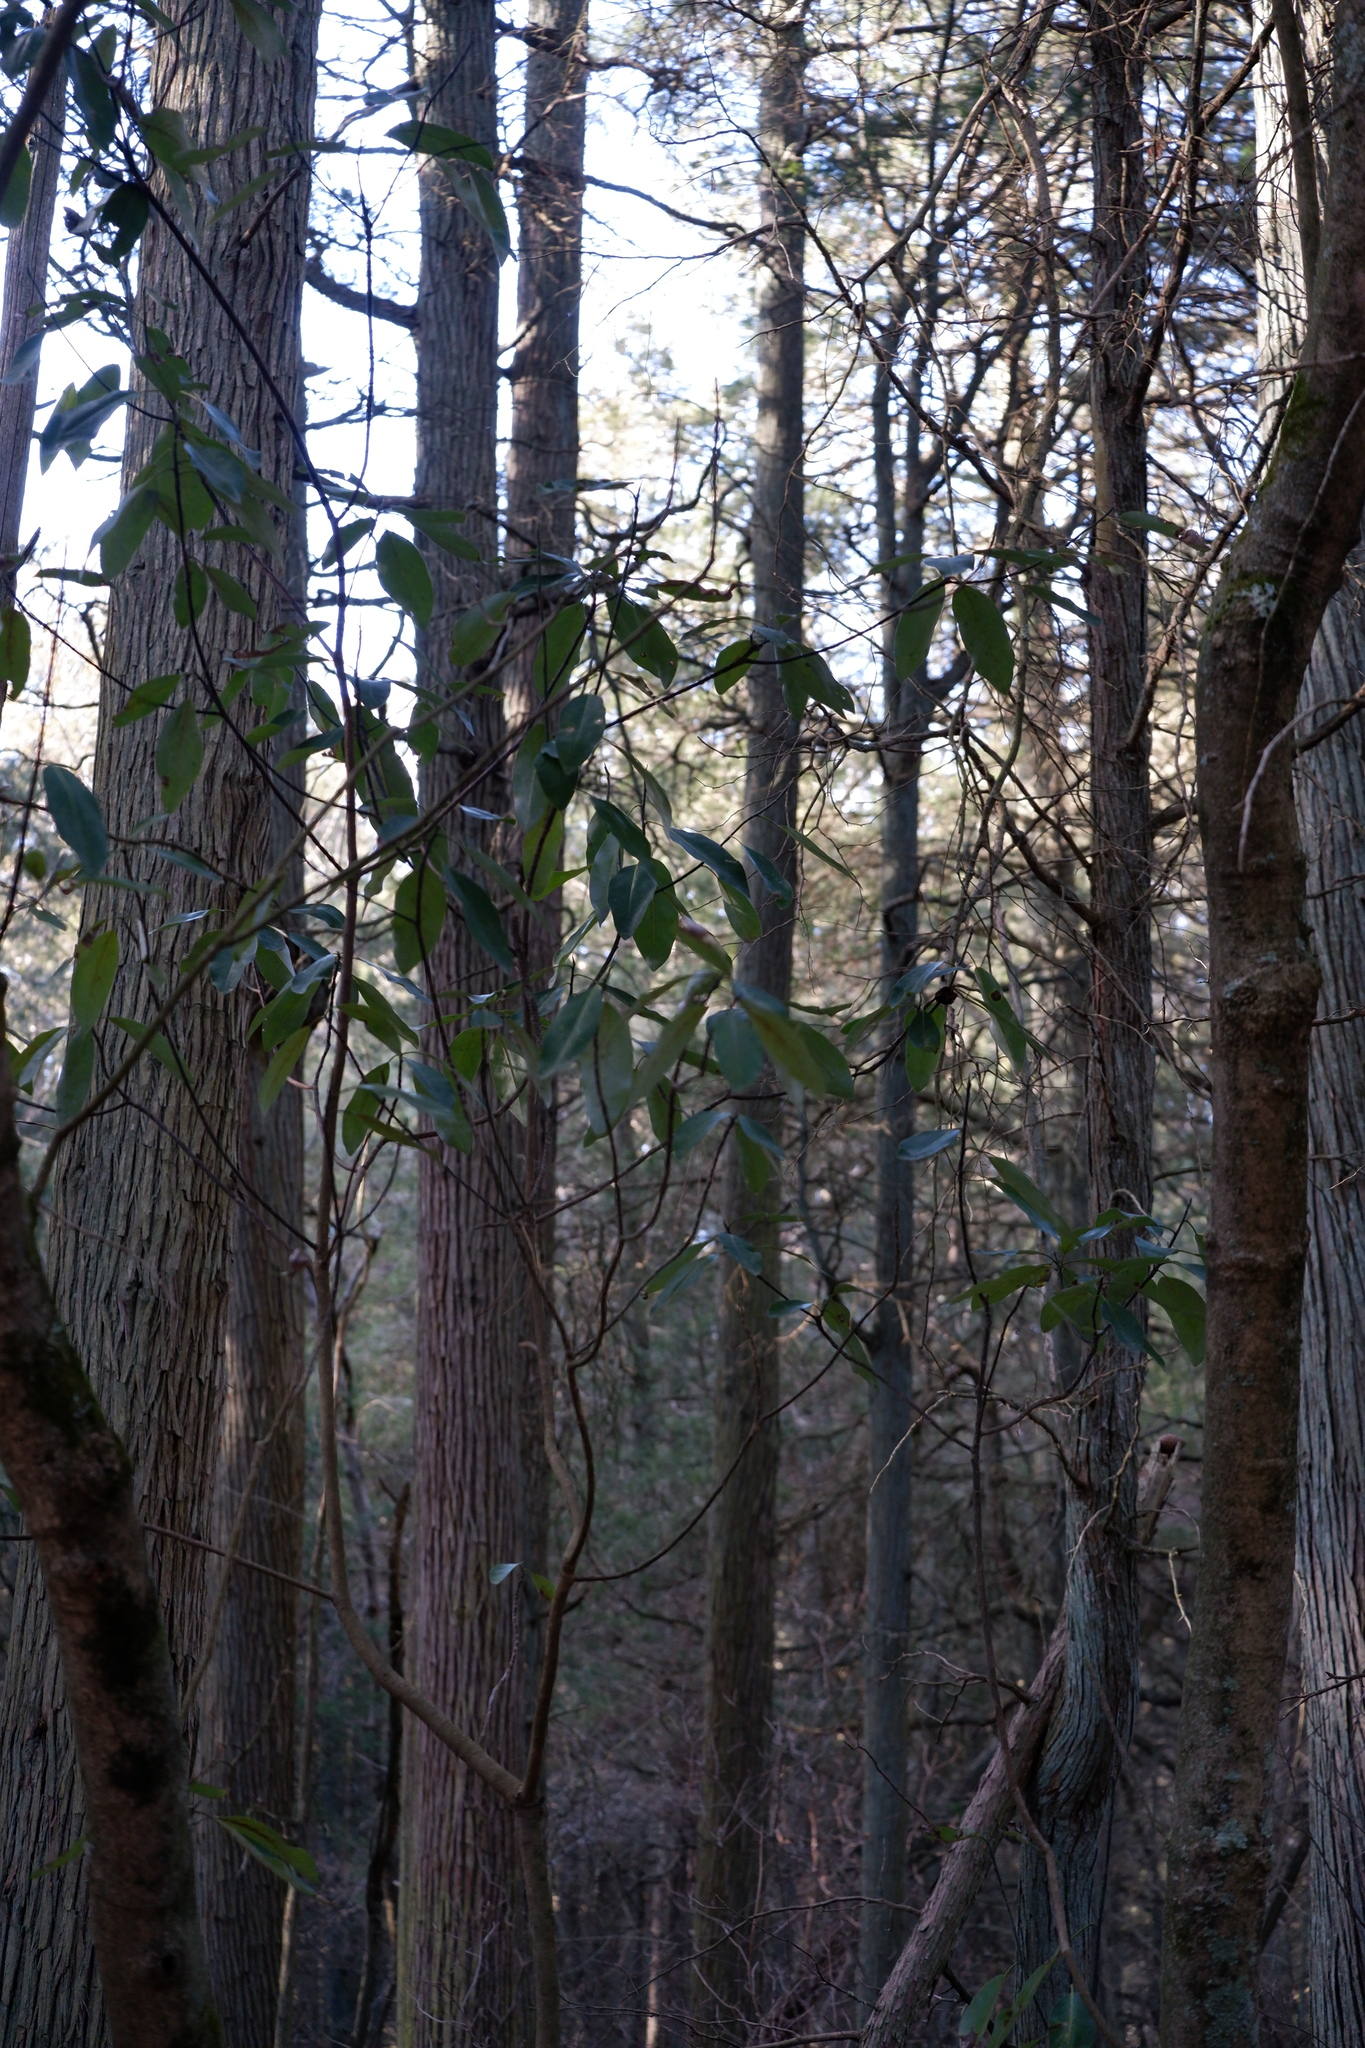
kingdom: Plantae
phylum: Tracheophyta
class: Magnoliopsida
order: Magnoliales
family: Magnoliaceae
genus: Magnolia
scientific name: Magnolia virginiana
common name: Swamp bay
